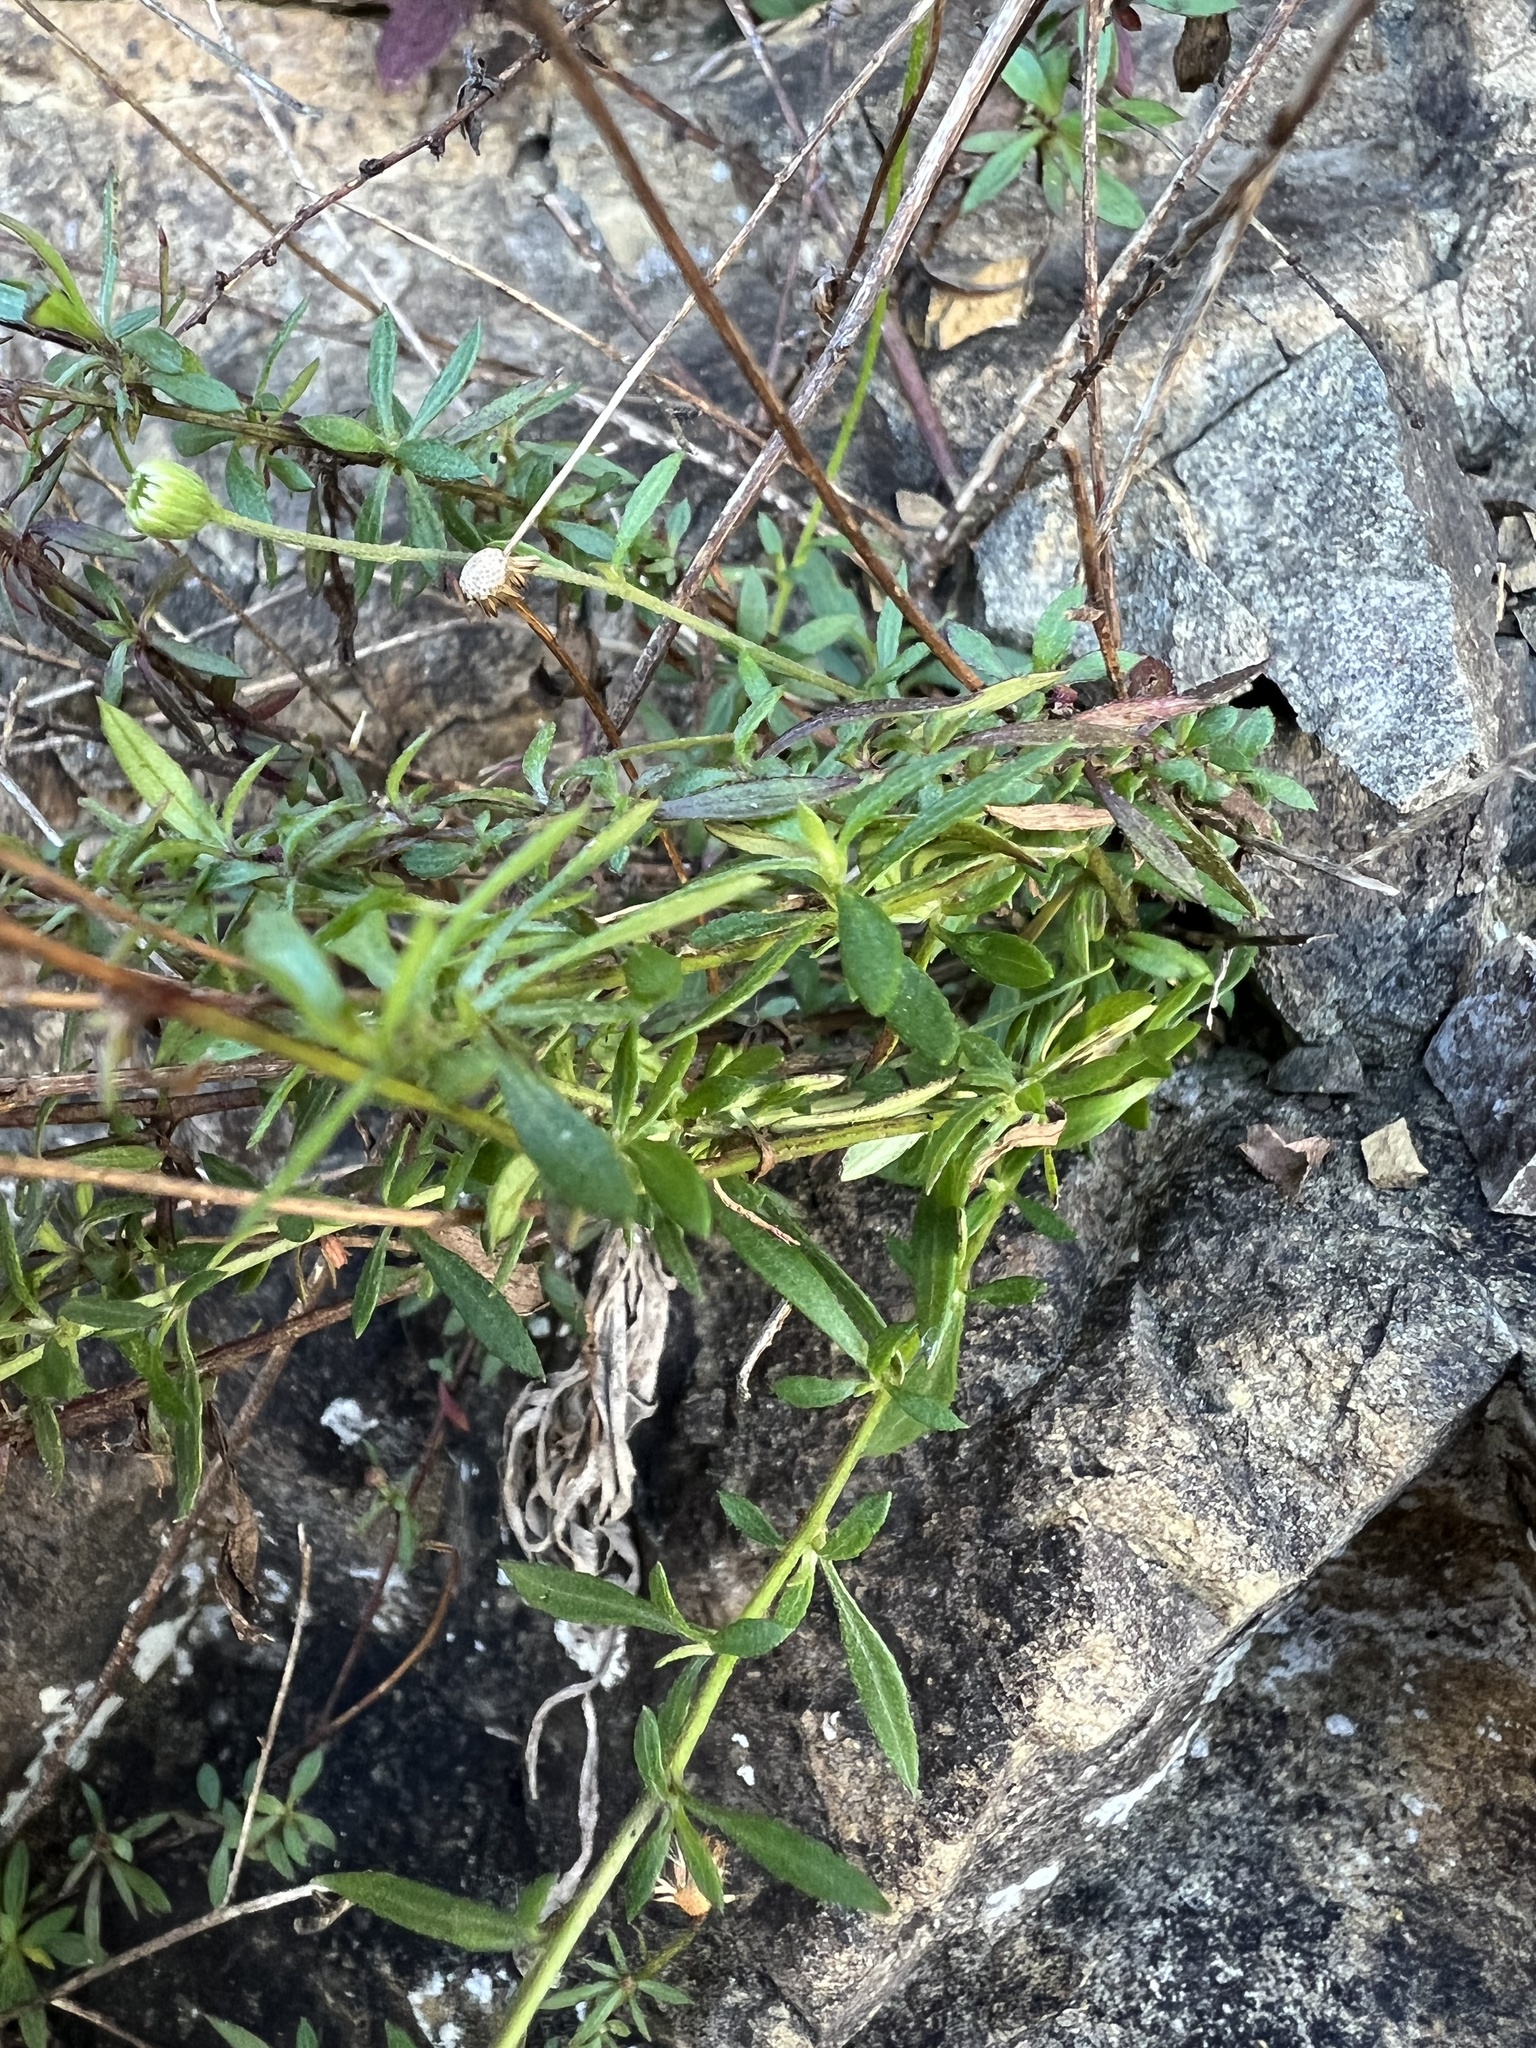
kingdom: Plantae
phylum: Tracheophyta
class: Magnoliopsida
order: Asterales
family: Asteraceae
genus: Erigeron
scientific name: Erigeron karvinskianus
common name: Mexican fleabane
